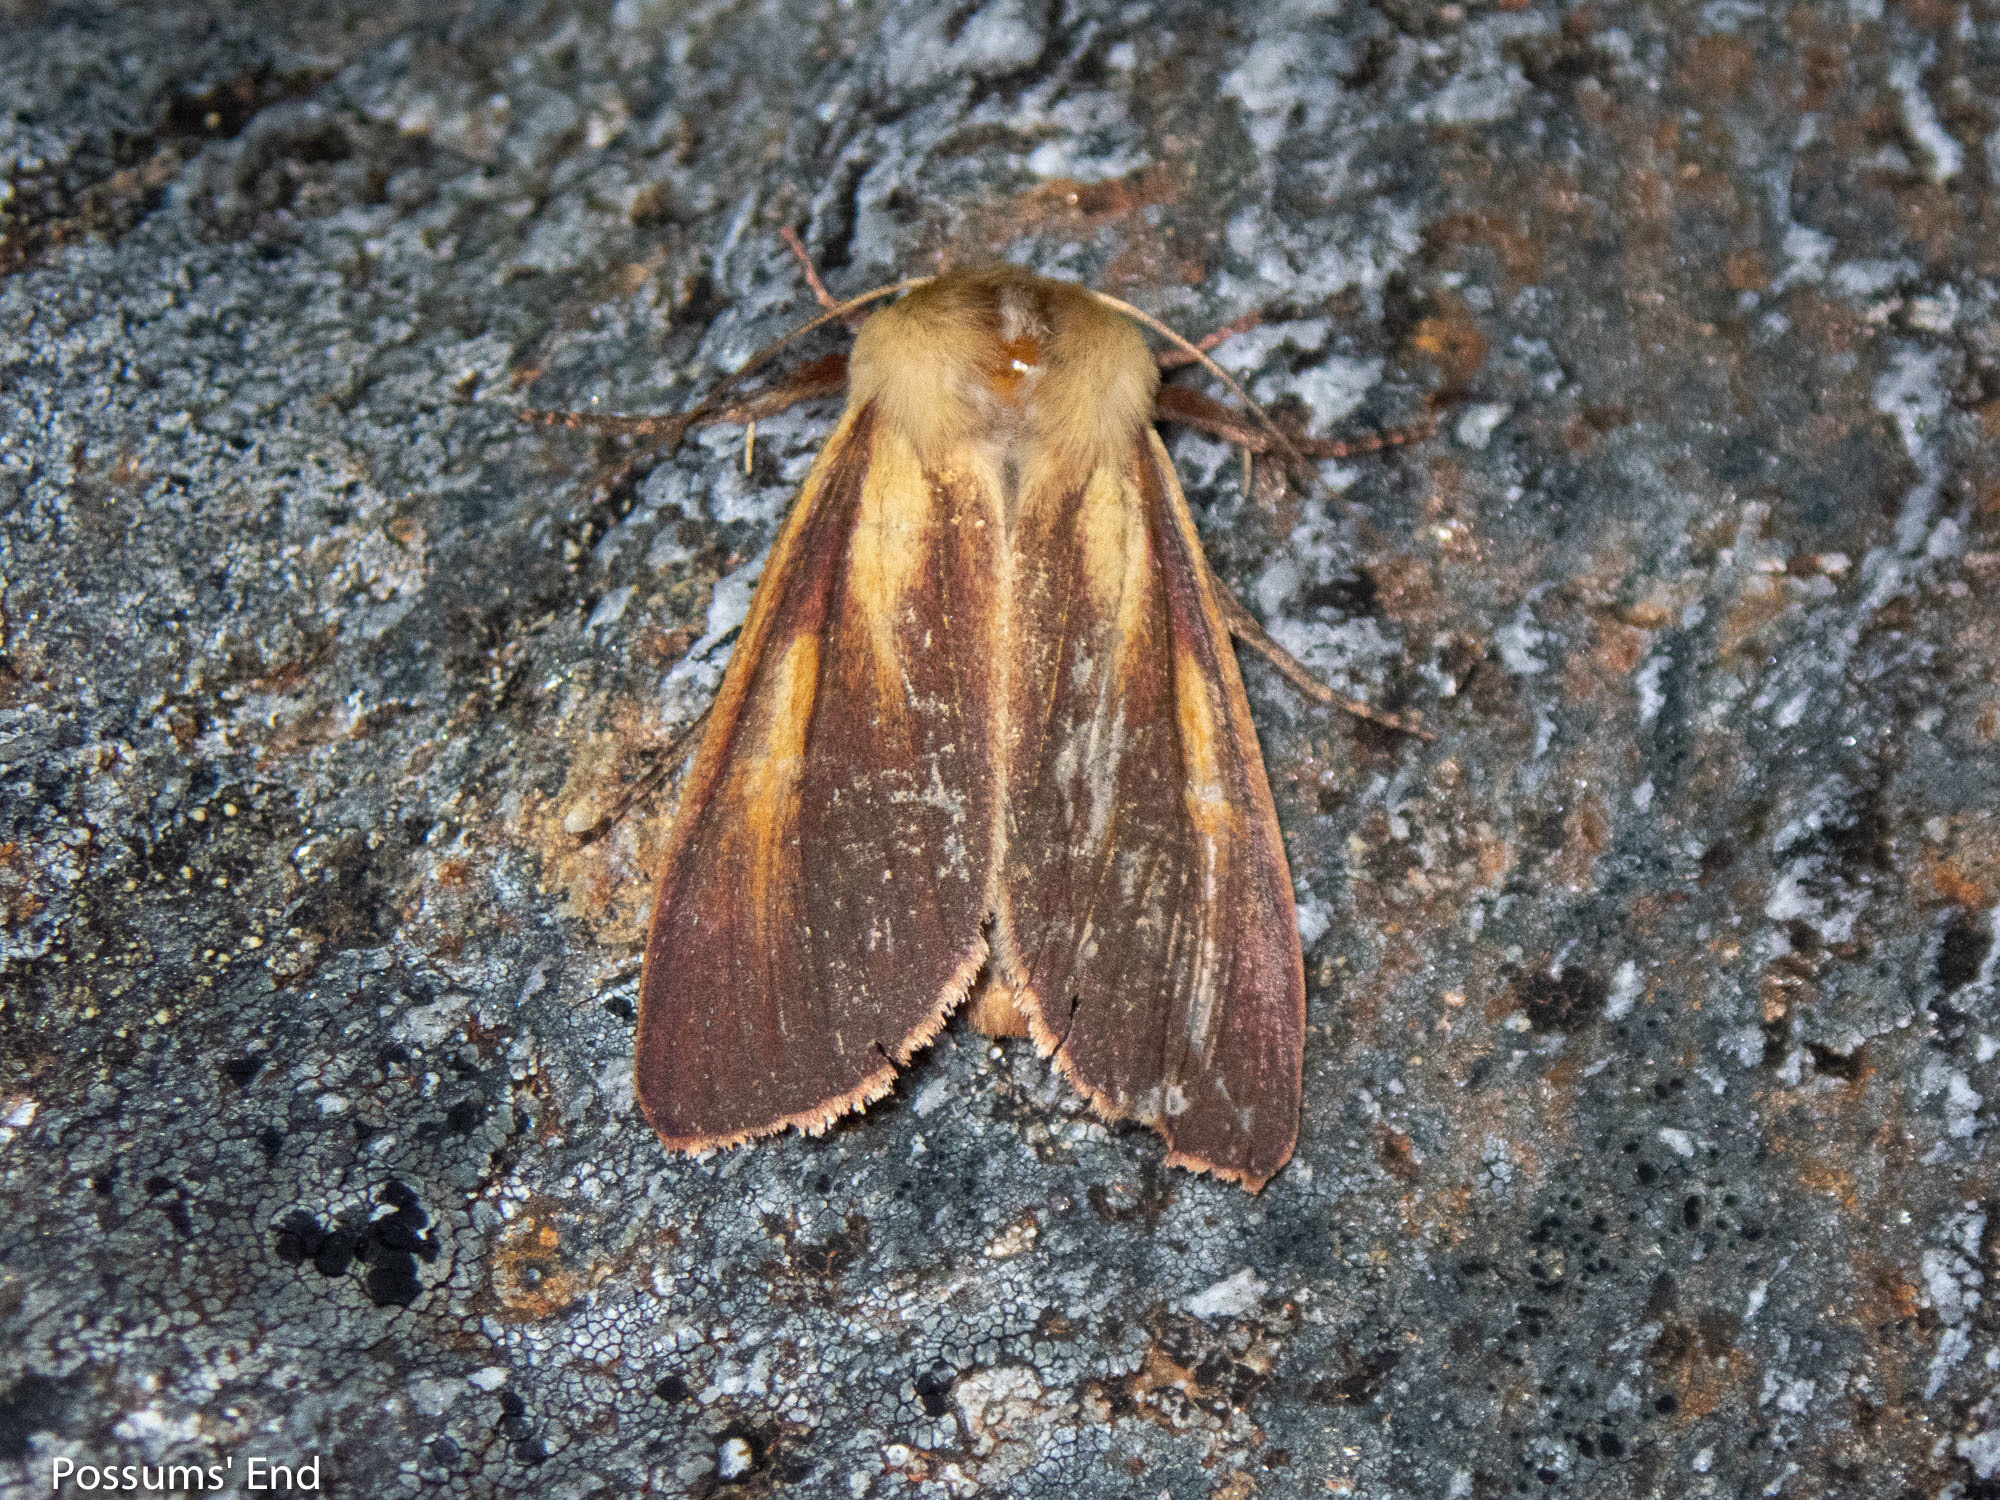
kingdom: Animalia
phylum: Arthropoda
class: Insecta
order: Lepidoptera
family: Noctuidae
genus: Ichneutica
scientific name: Ichneutica
